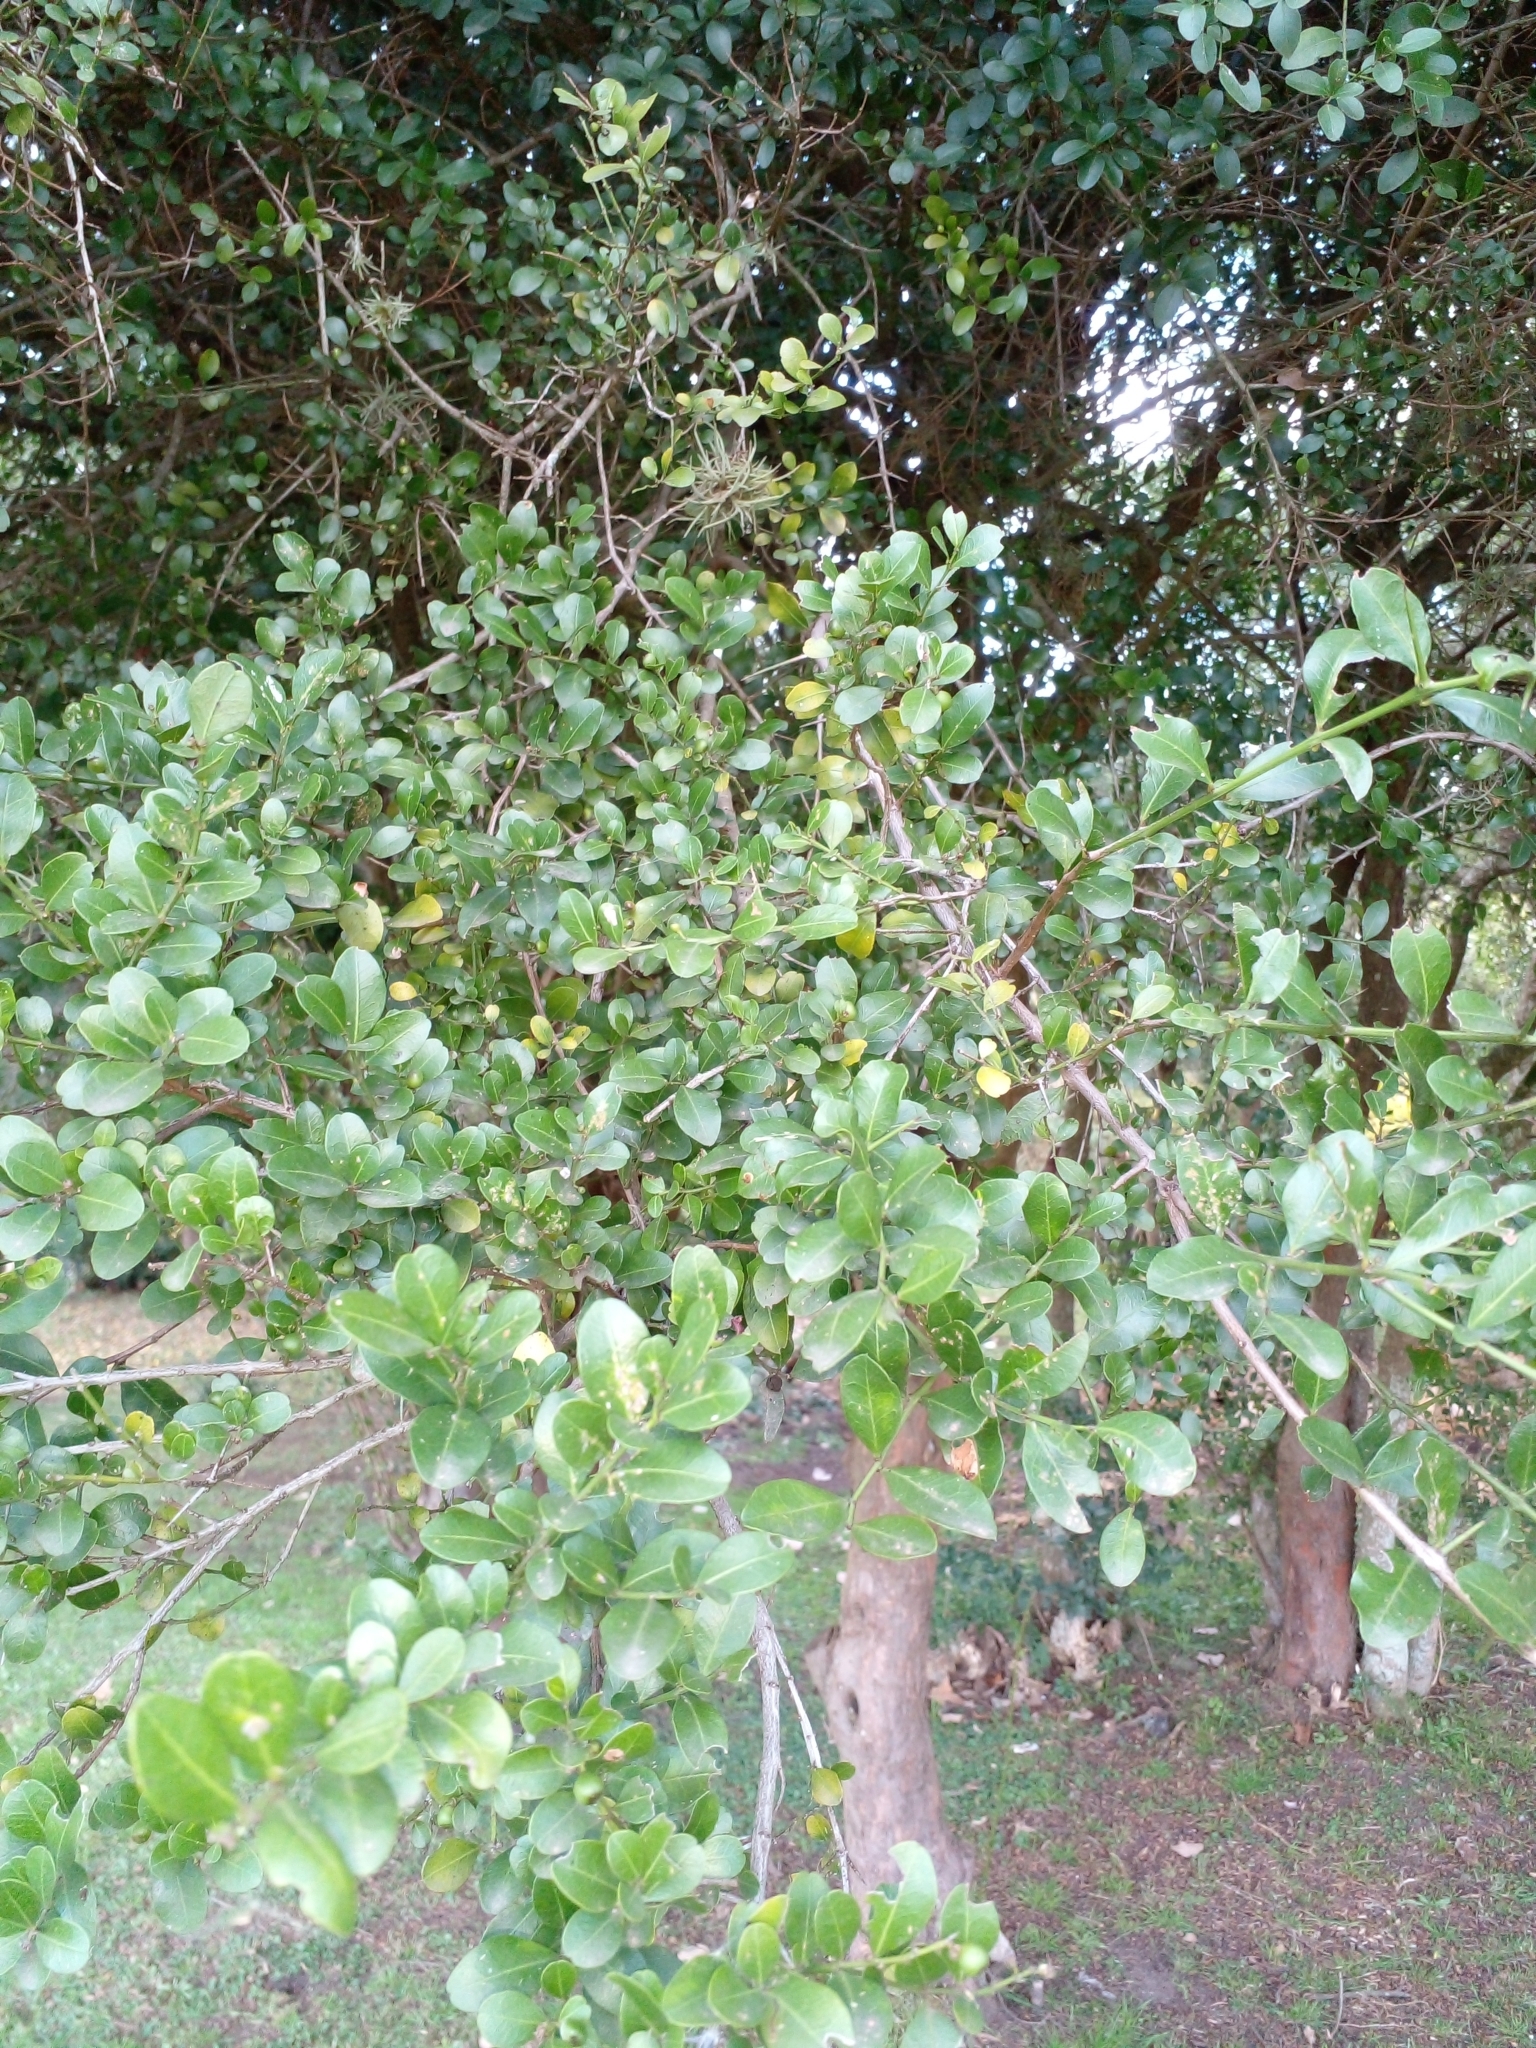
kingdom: Plantae
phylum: Tracheophyta
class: Magnoliopsida
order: Rosales
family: Rhamnaceae
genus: Scutia
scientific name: Scutia buxifolia
